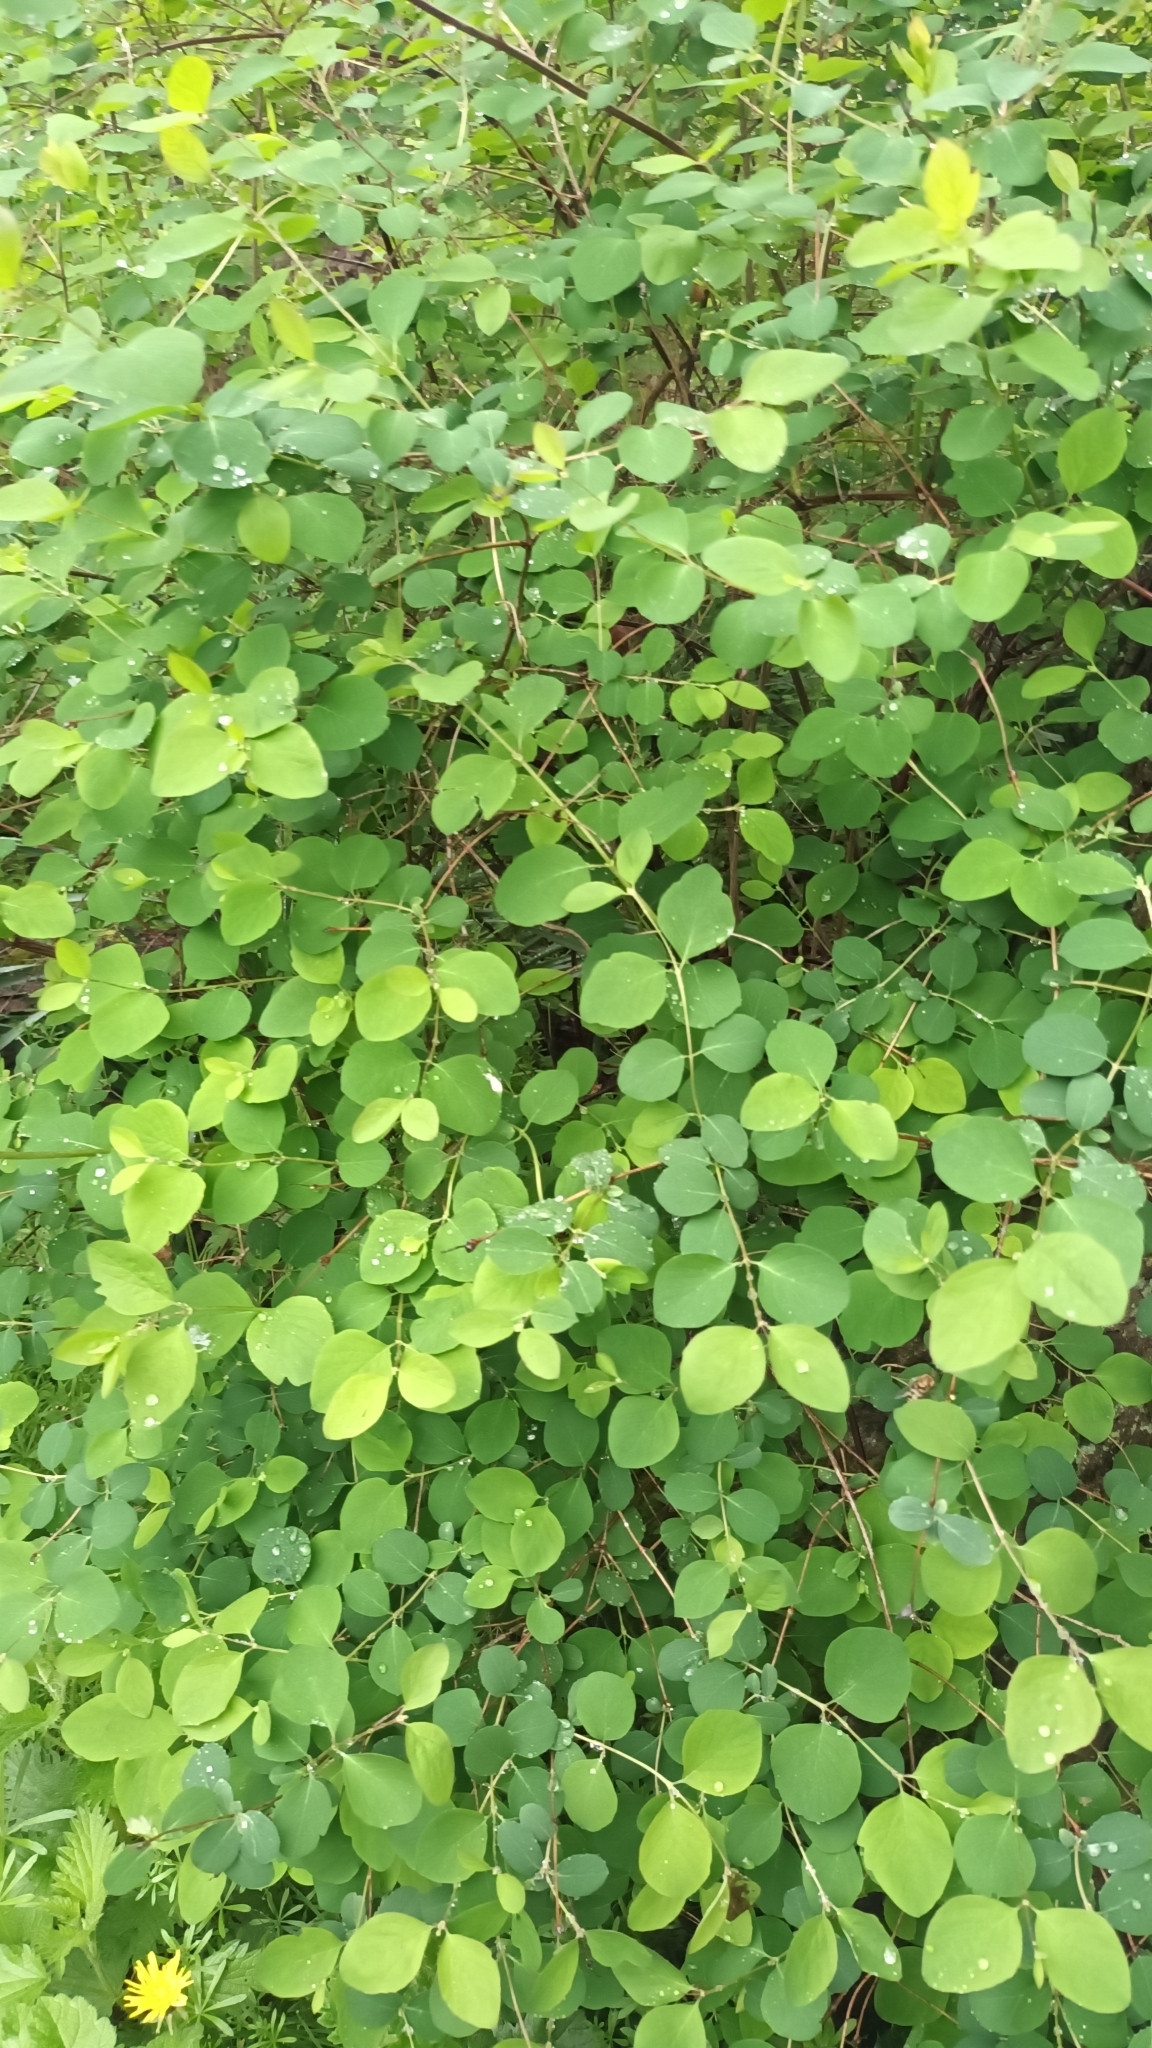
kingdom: Plantae
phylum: Tracheophyta
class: Magnoliopsida
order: Dipsacales
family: Caprifoliaceae
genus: Symphoricarpos
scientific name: Symphoricarpos albus
